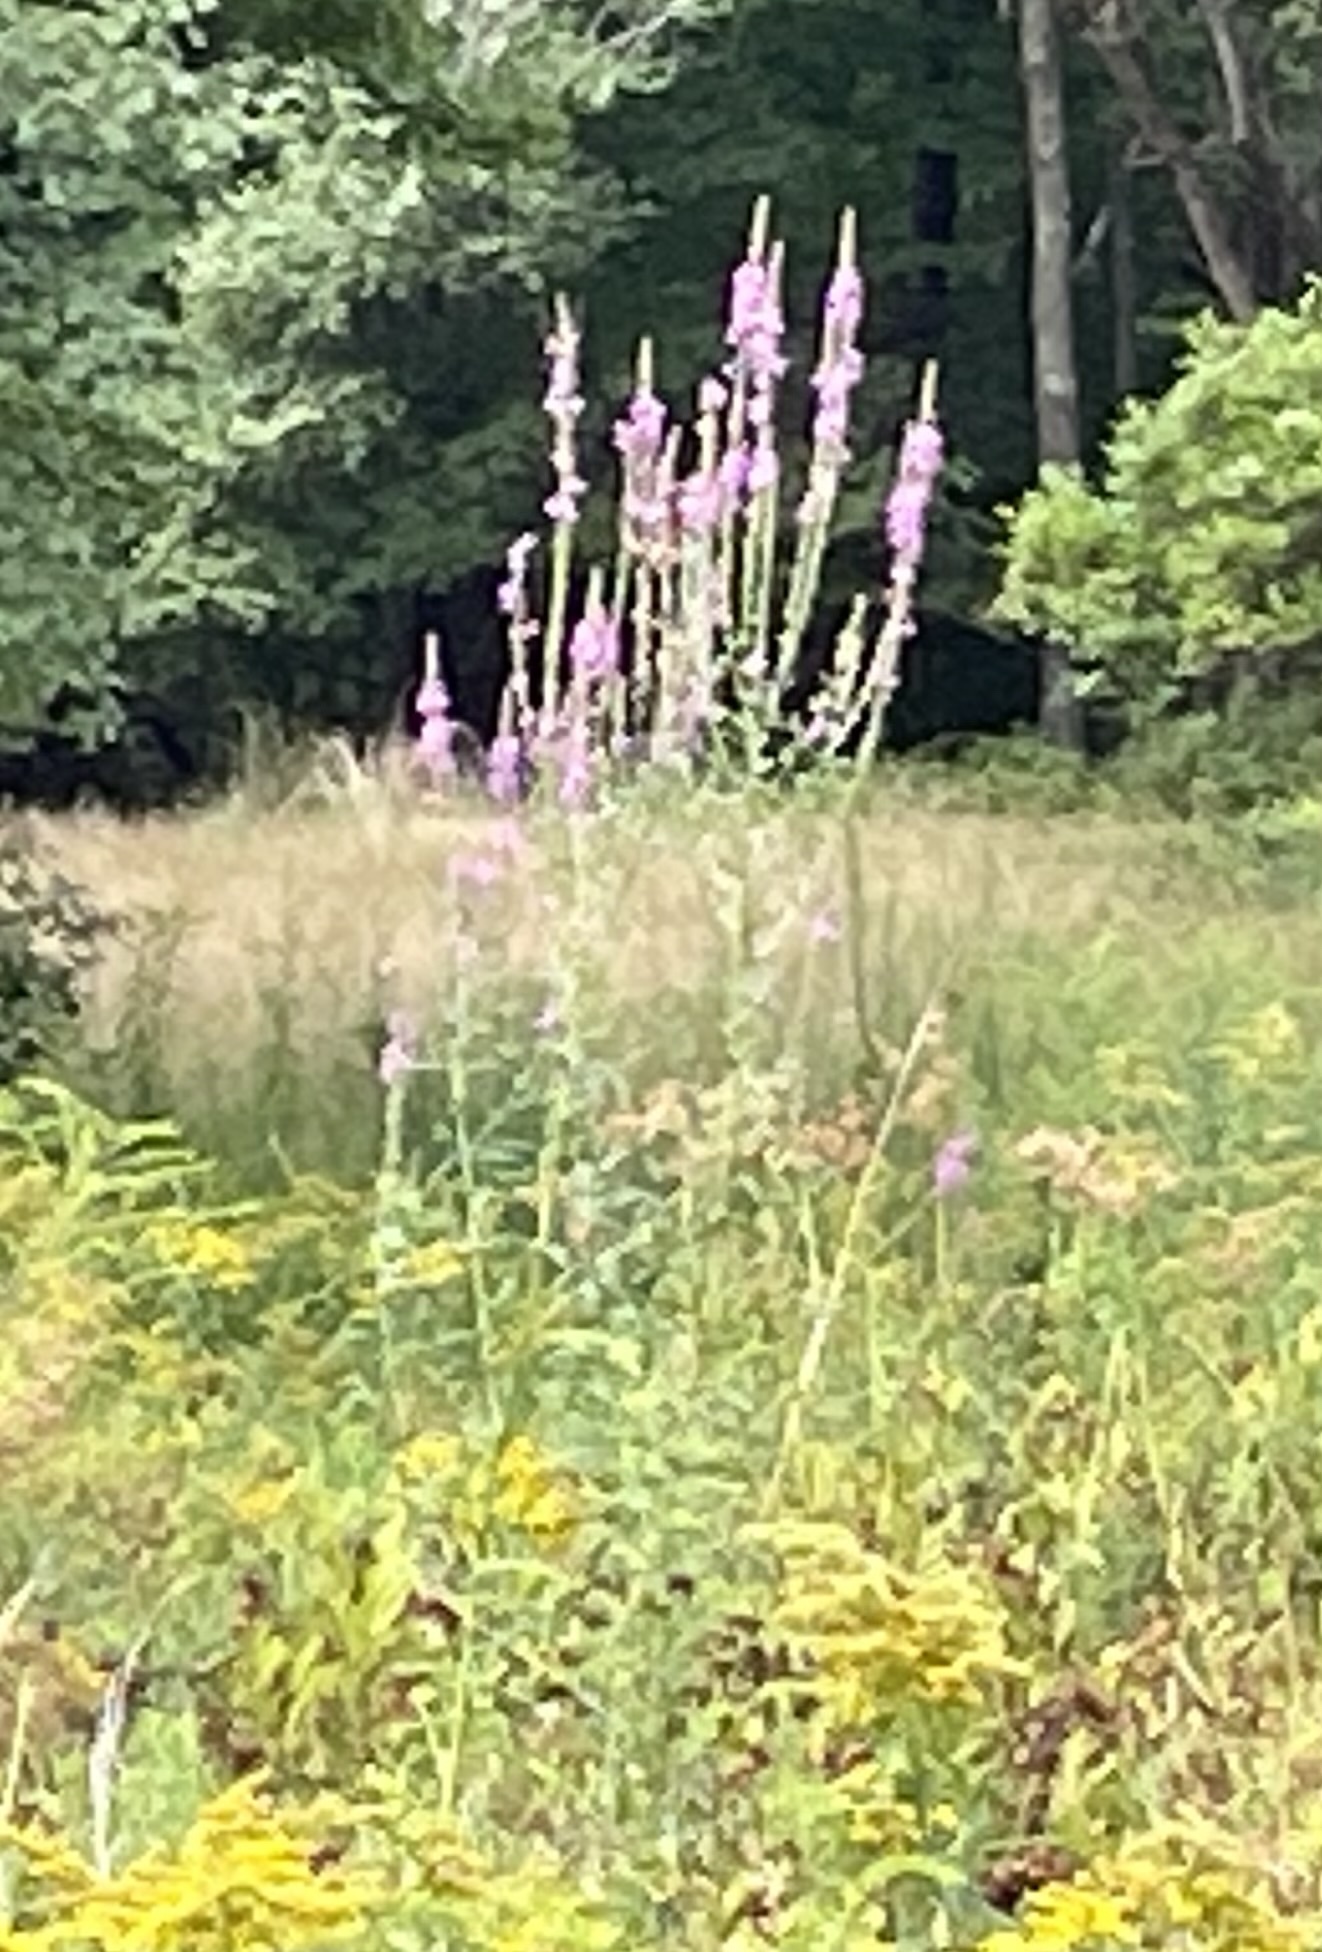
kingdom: Plantae
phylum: Tracheophyta
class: Magnoliopsida
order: Myrtales
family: Lythraceae
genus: Lythrum
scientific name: Lythrum salicaria
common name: Purple loosestrife
